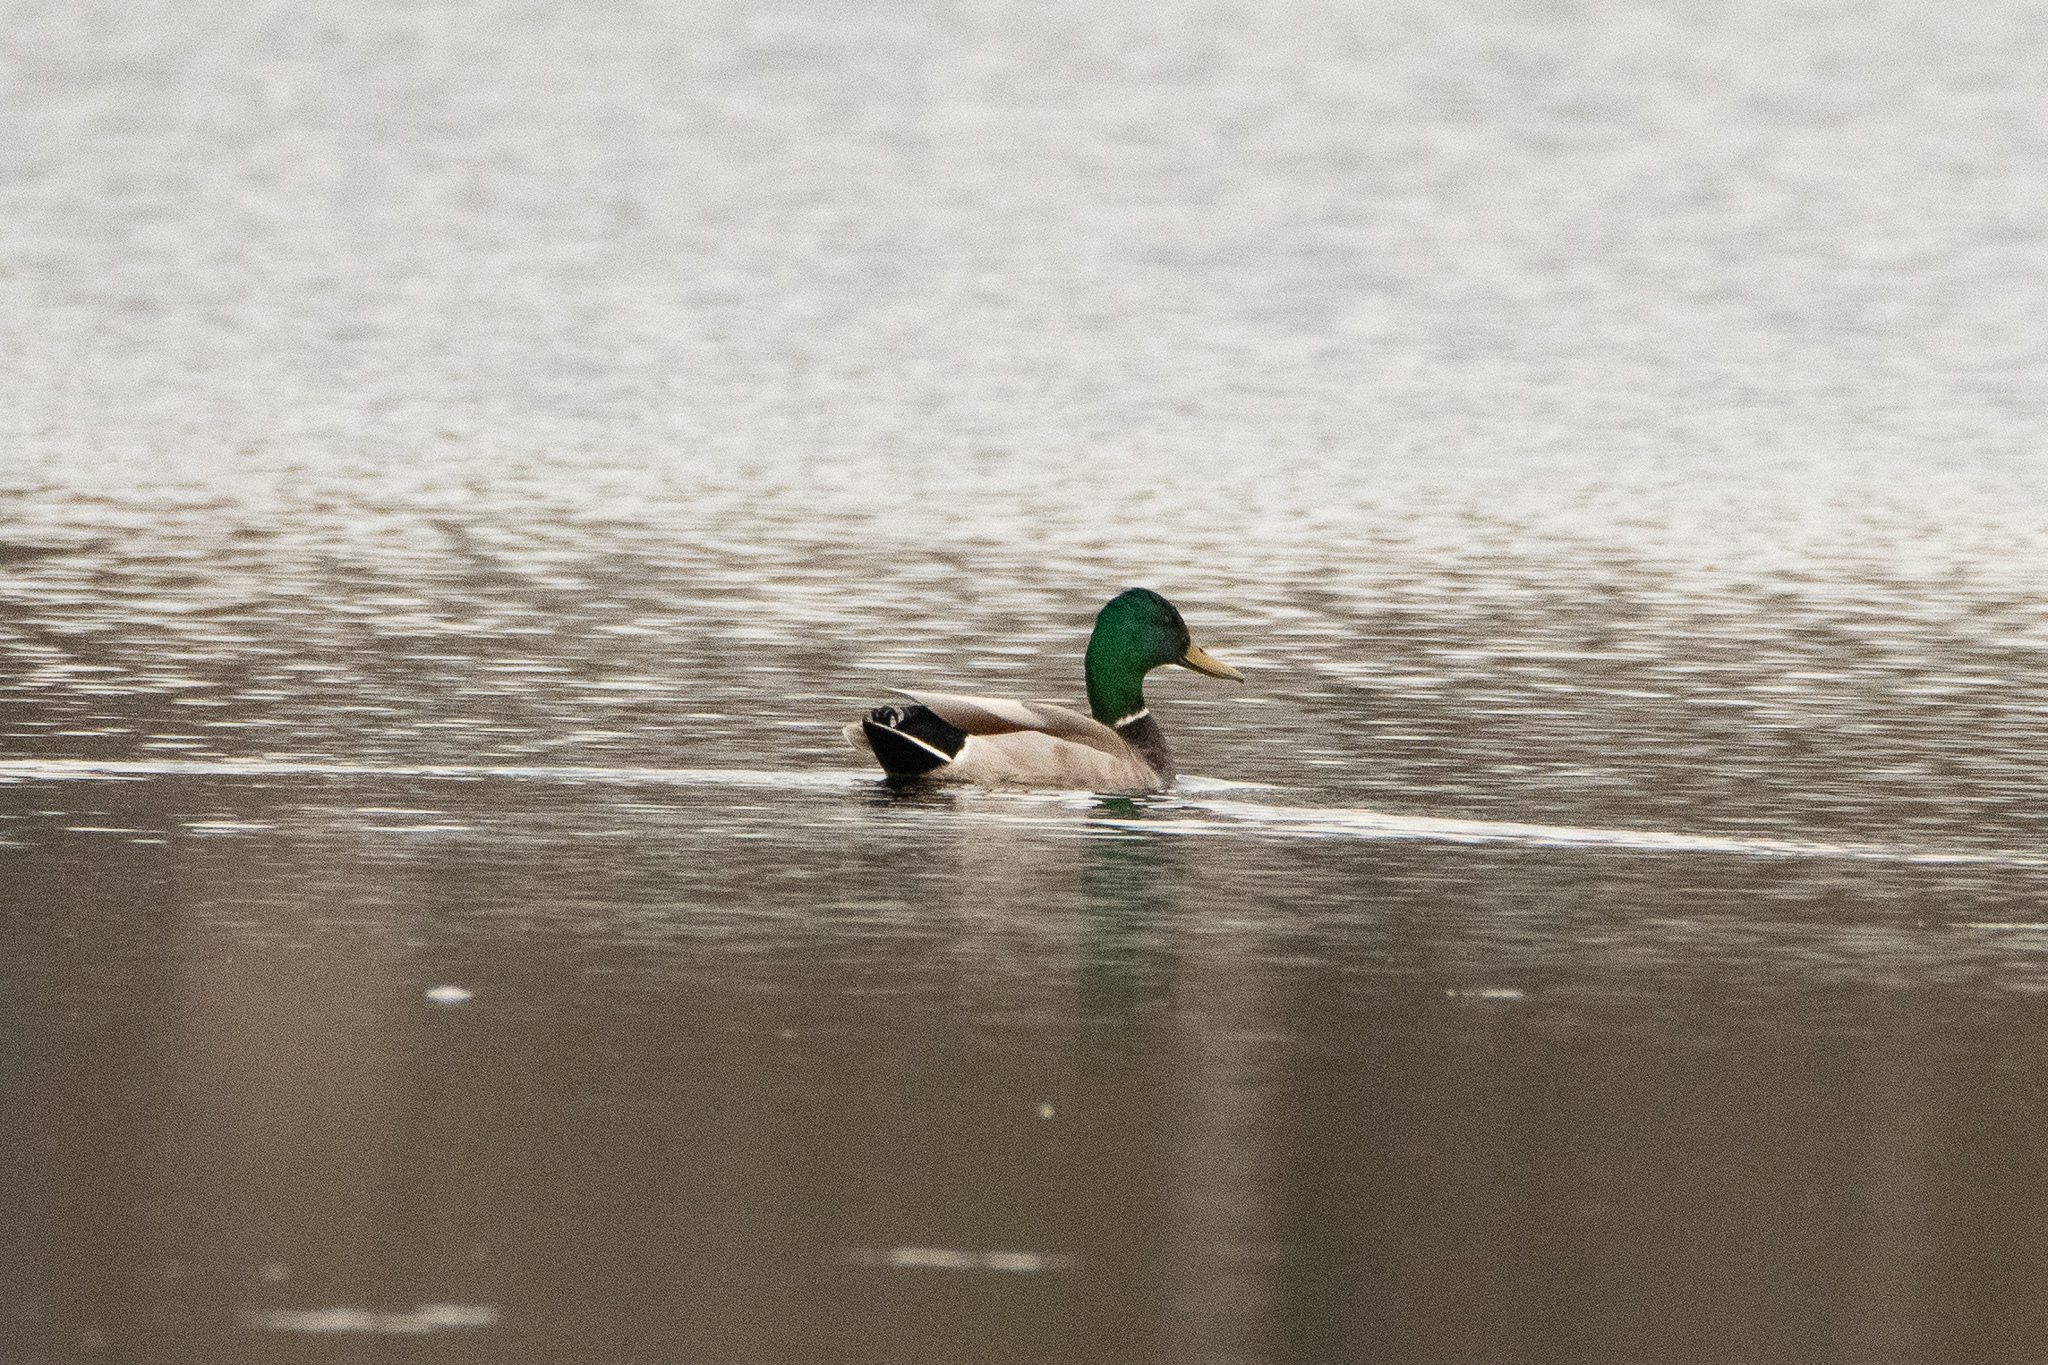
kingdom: Animalia
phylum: Chordata
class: Aves
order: Anseriformes
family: Anatidae
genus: Anas
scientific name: Anas platyrhynchos
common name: Mallard
